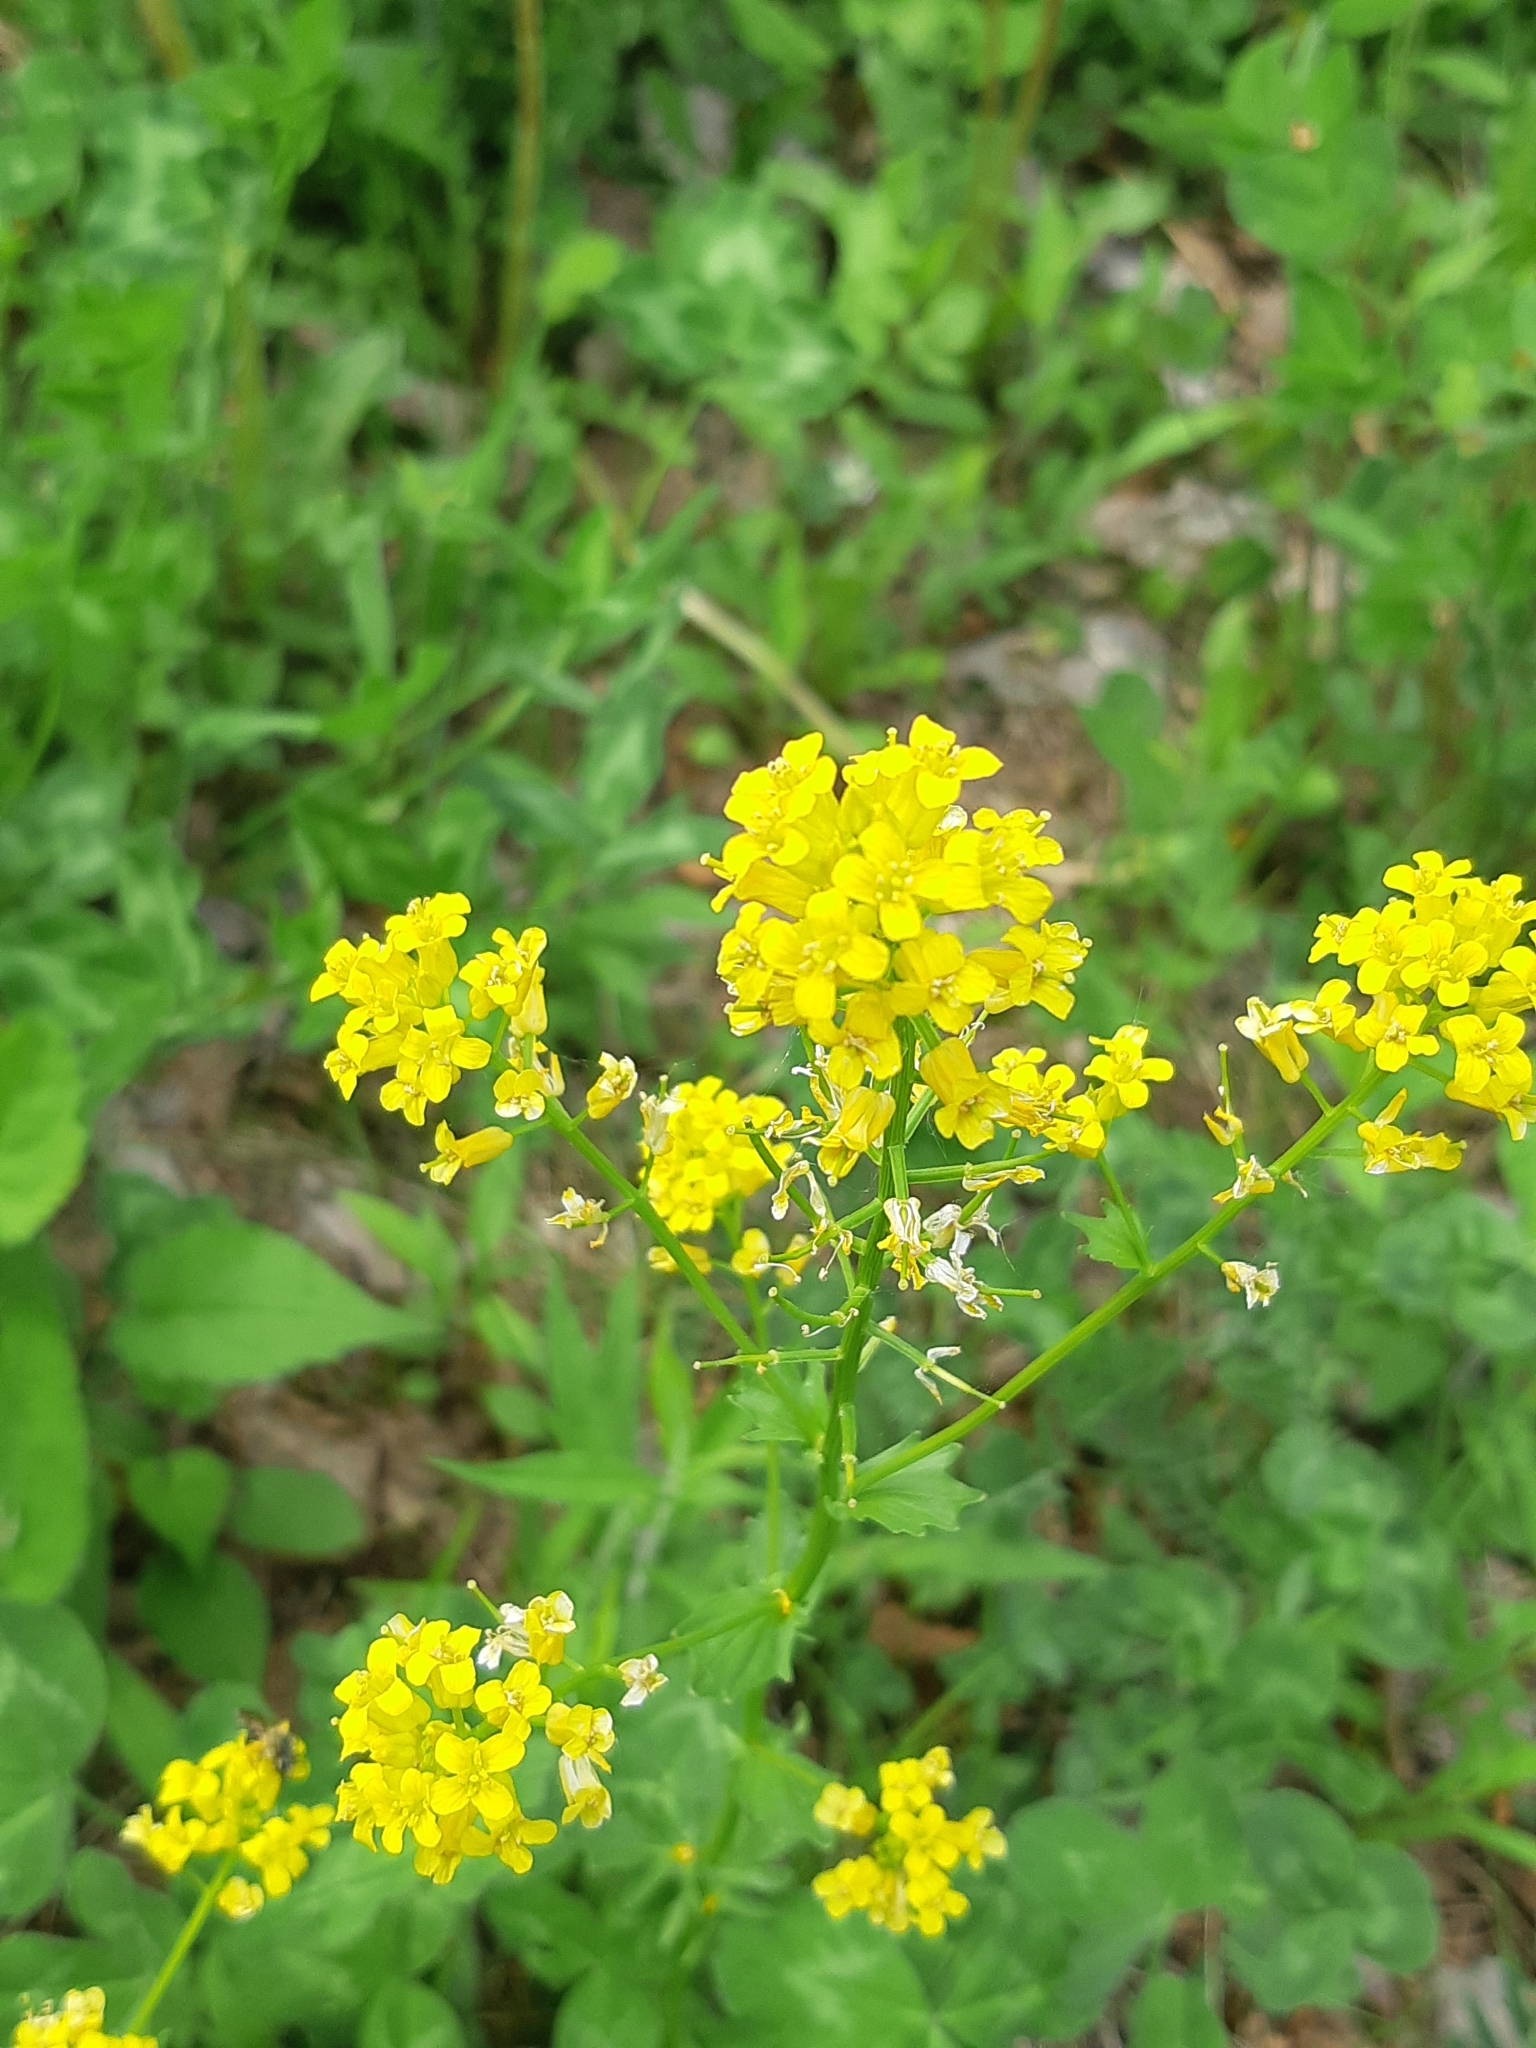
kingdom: Plantae
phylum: Tracheophyta
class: Magnoliopsida
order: Brassicales
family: Brassicaceae
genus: Barbarea
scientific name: Barbarea vulgaris
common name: Cressy-greens
